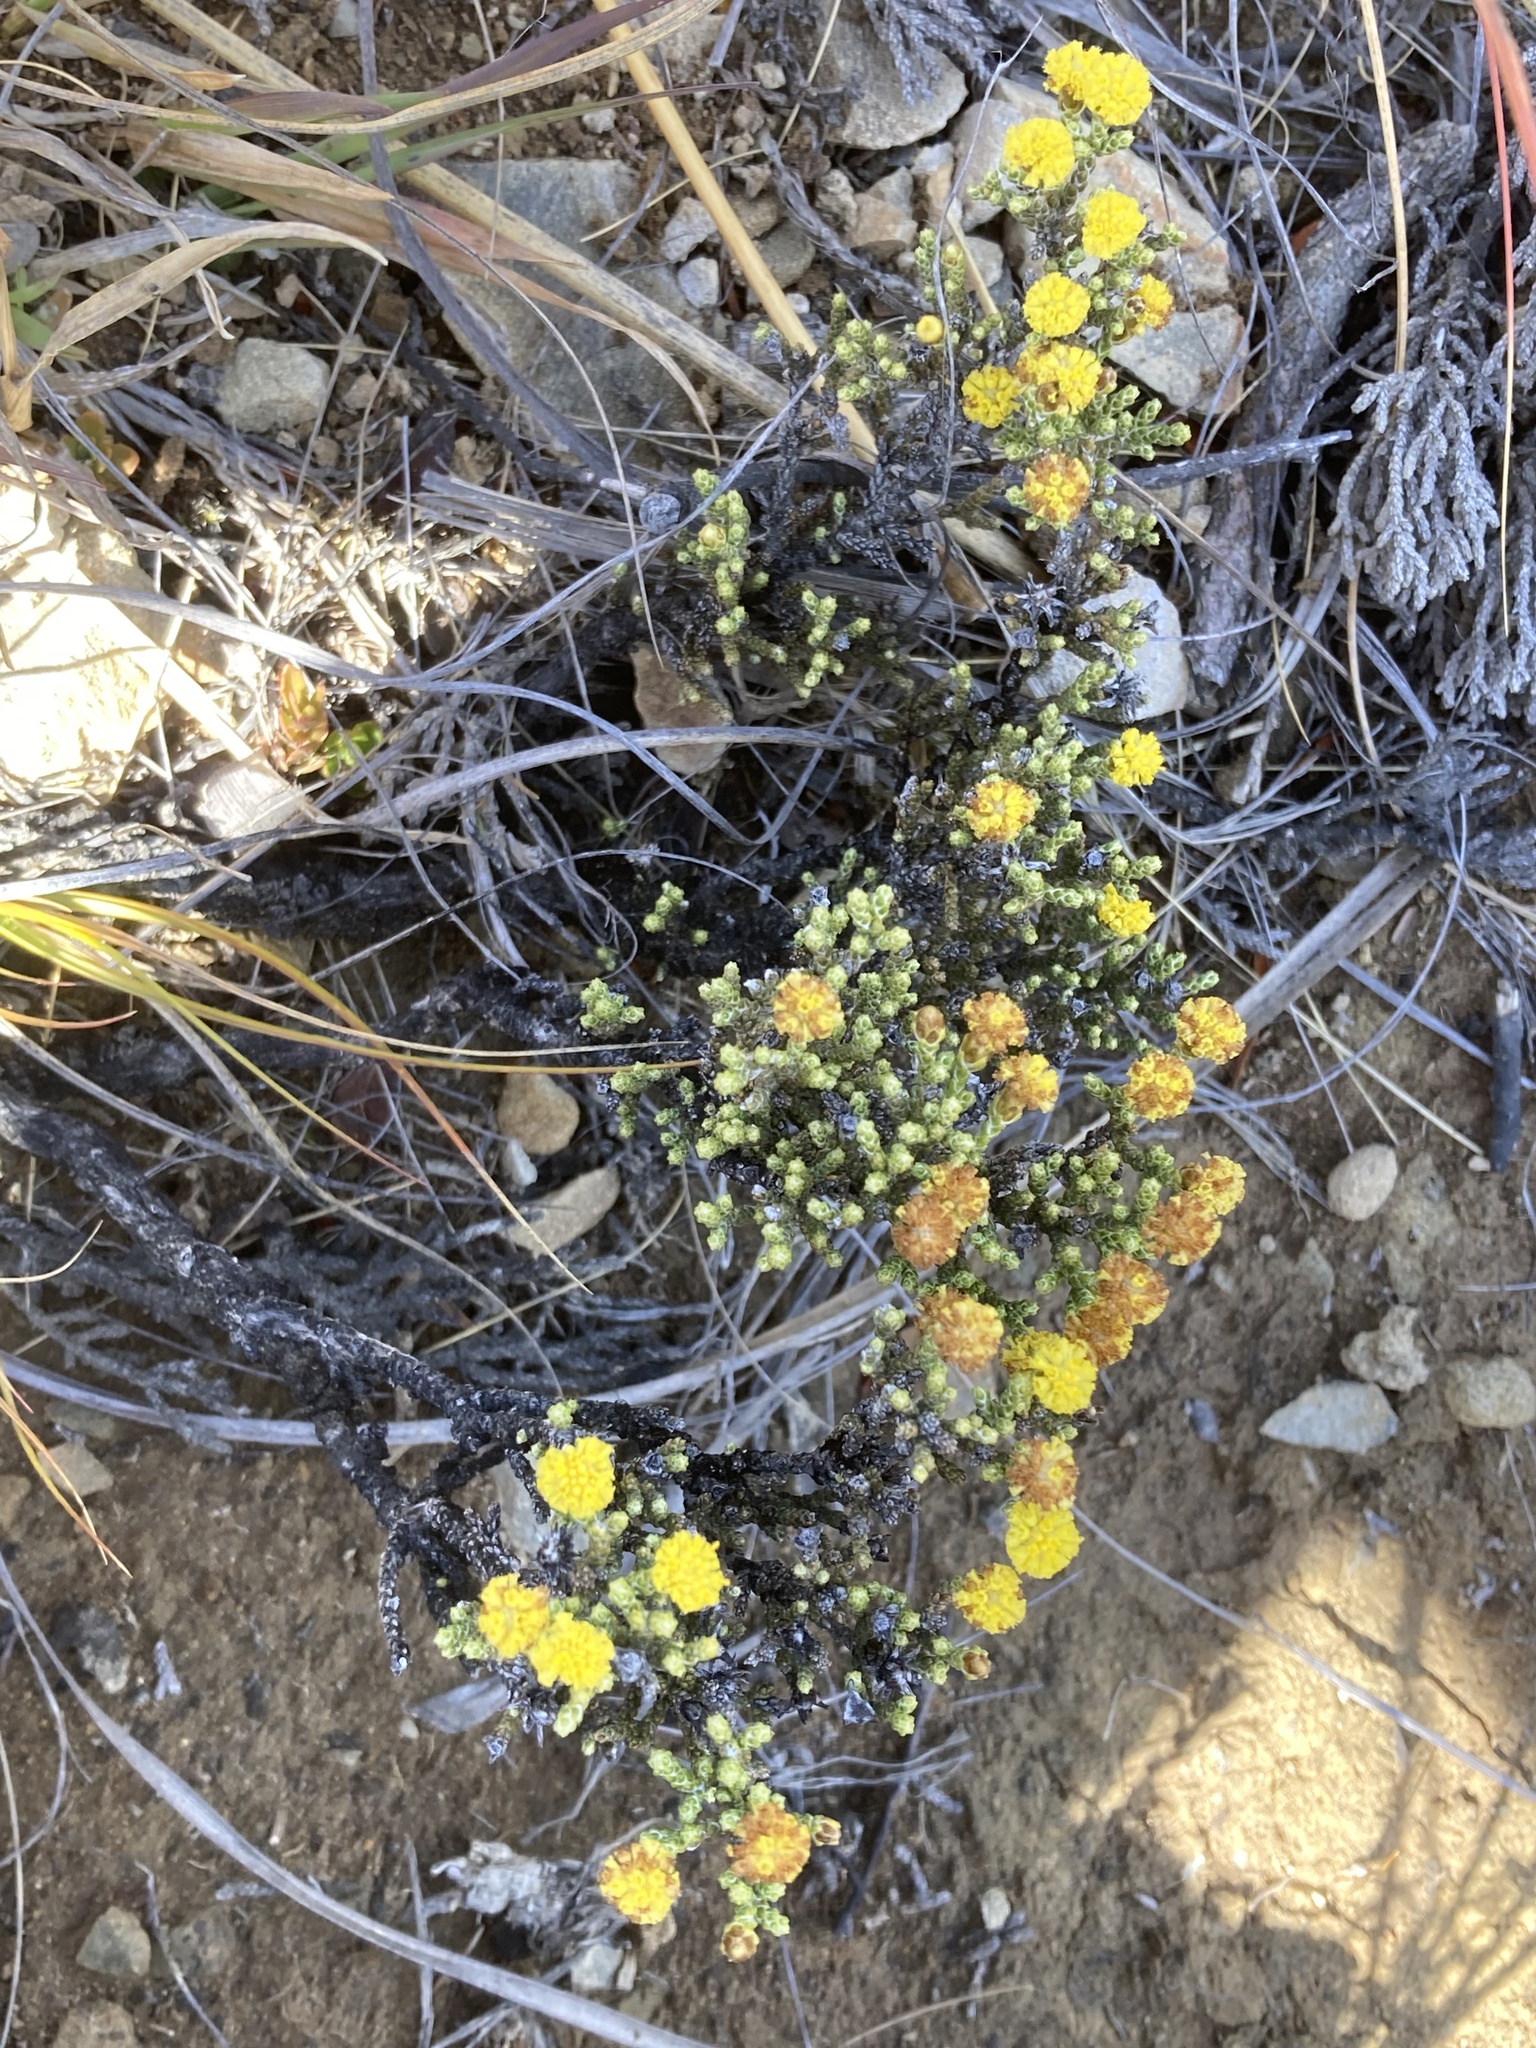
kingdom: Plantae
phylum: Tracheophyta
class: Magnoliopsida
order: Asterales
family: Asteraceae
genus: Ozothamnus
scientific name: Ozothamnus parvifolius
